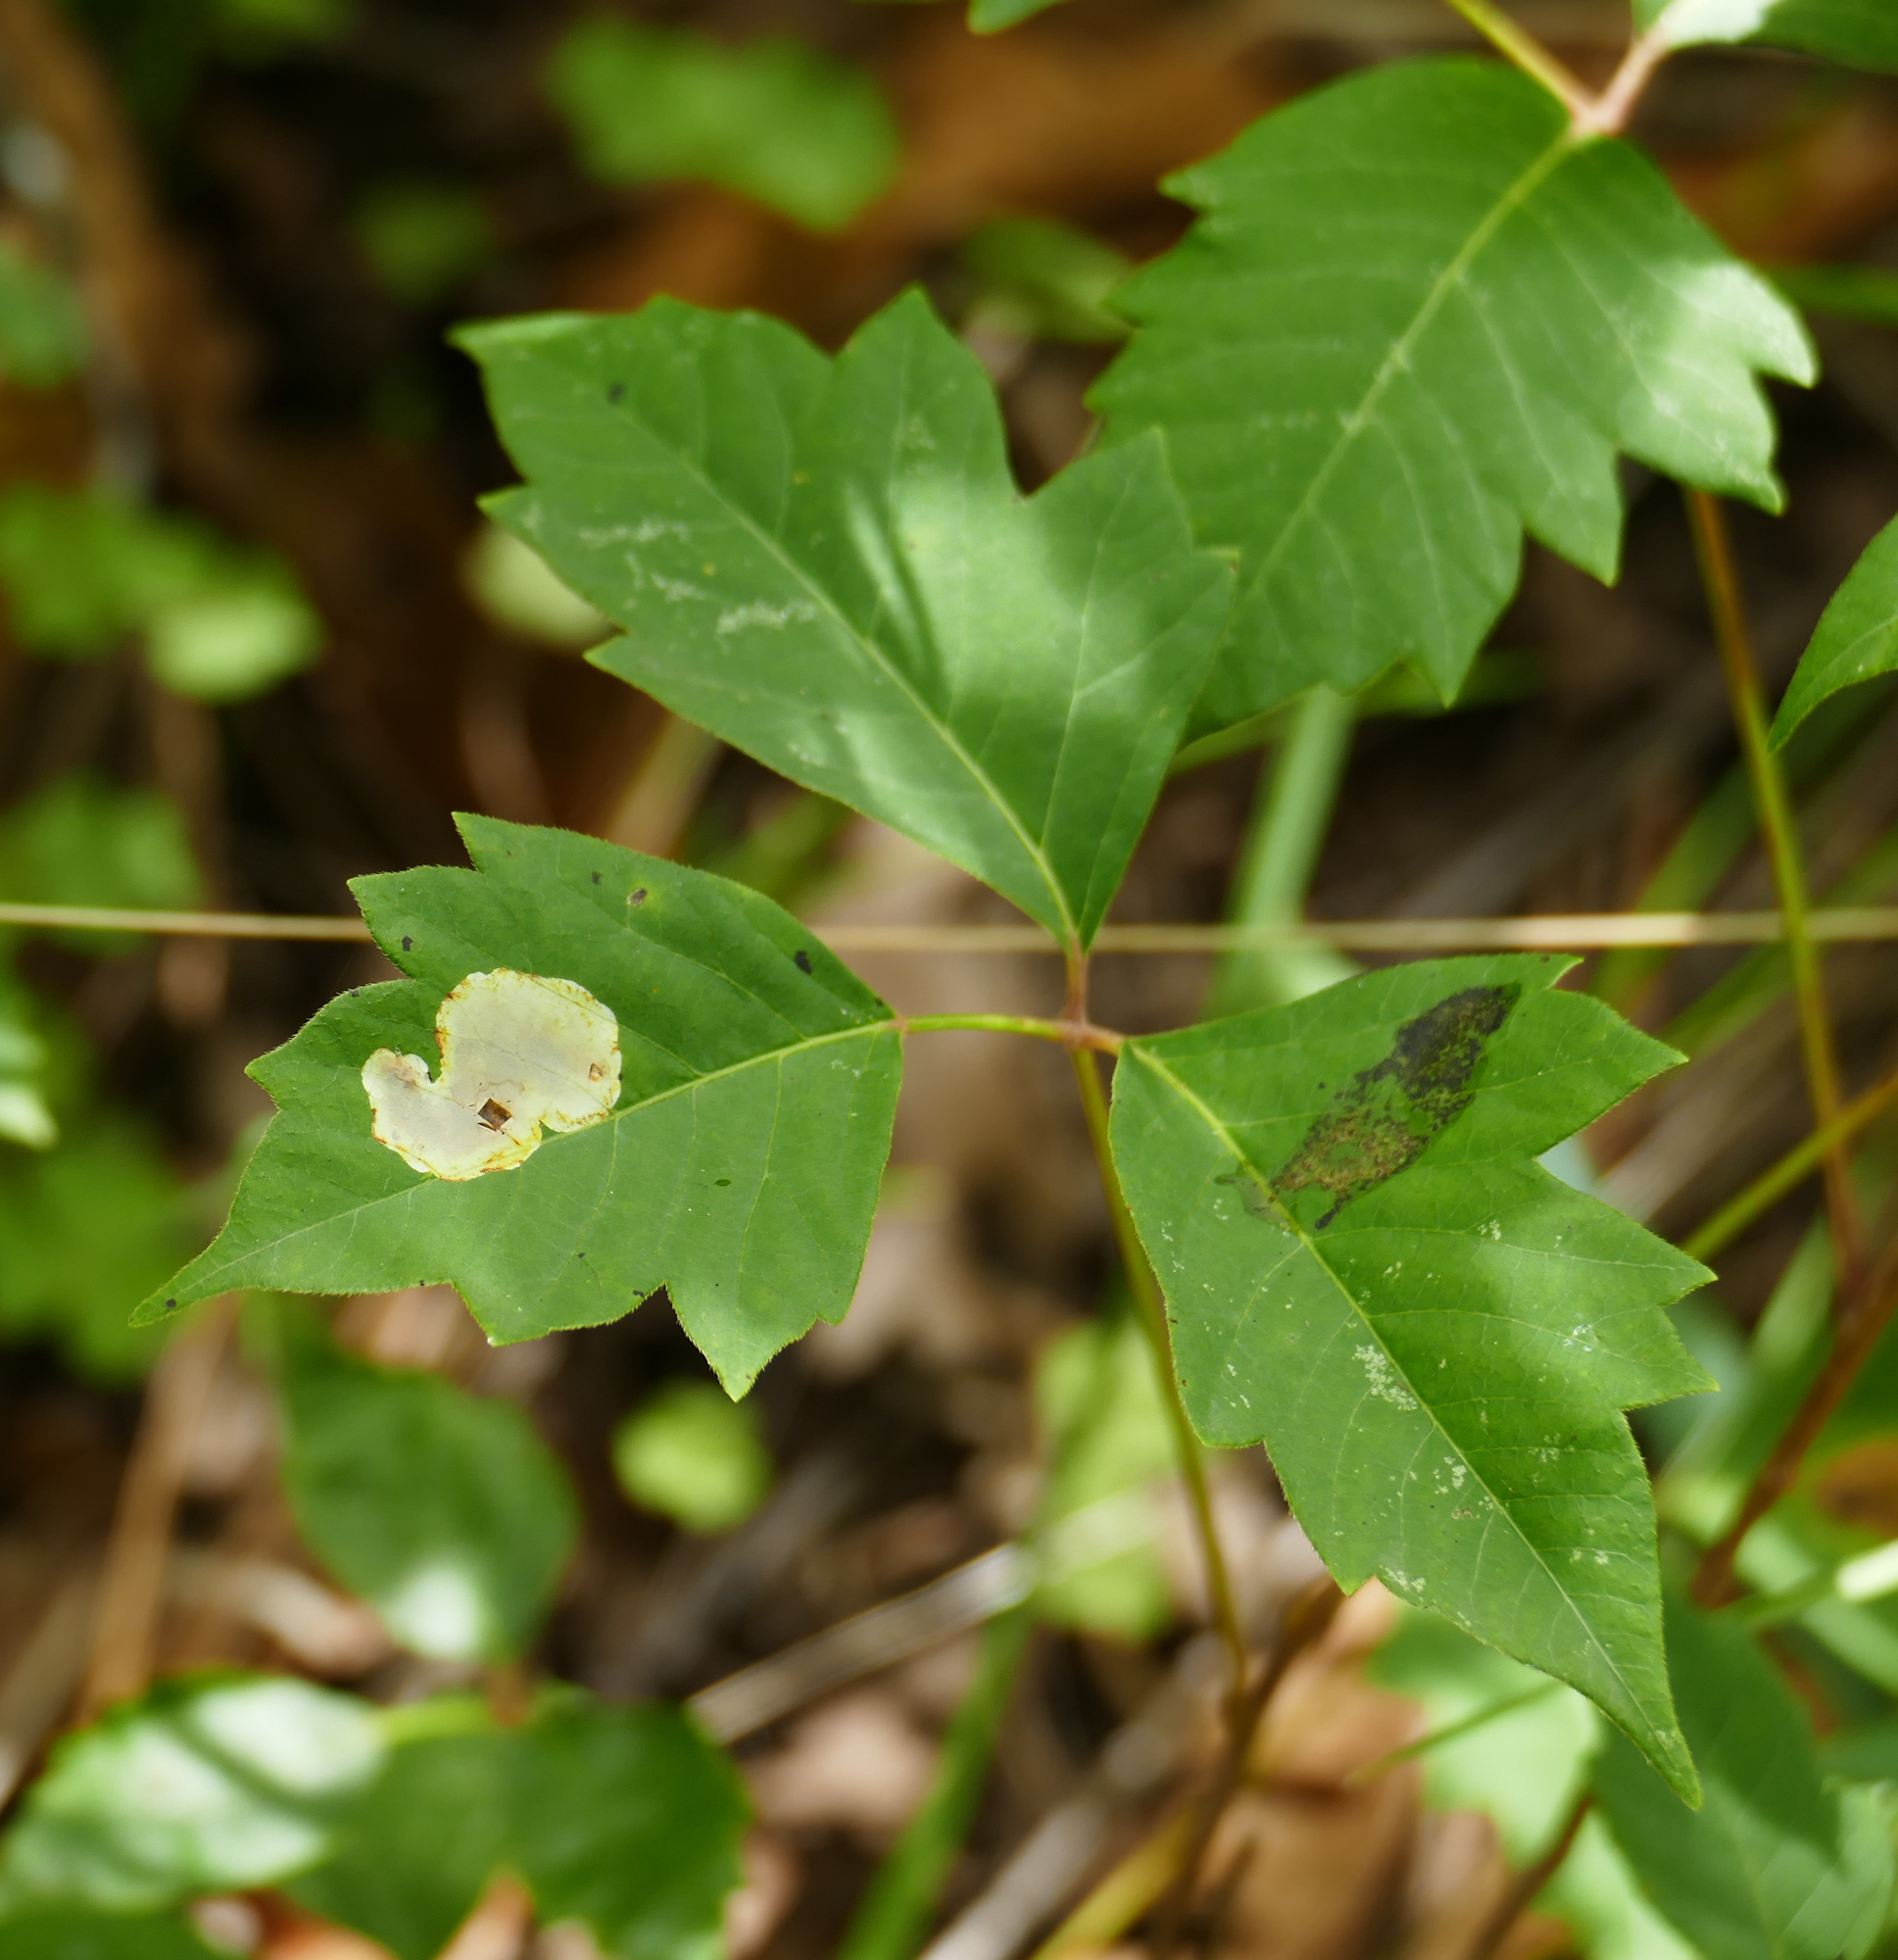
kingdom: Animalia
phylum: Arthropoda
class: Insecta
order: Lepidoptera
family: Gracillariidae
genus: Cameraria
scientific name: Cameraria guttifinitella
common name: Poison ivy leaf-miner moth
